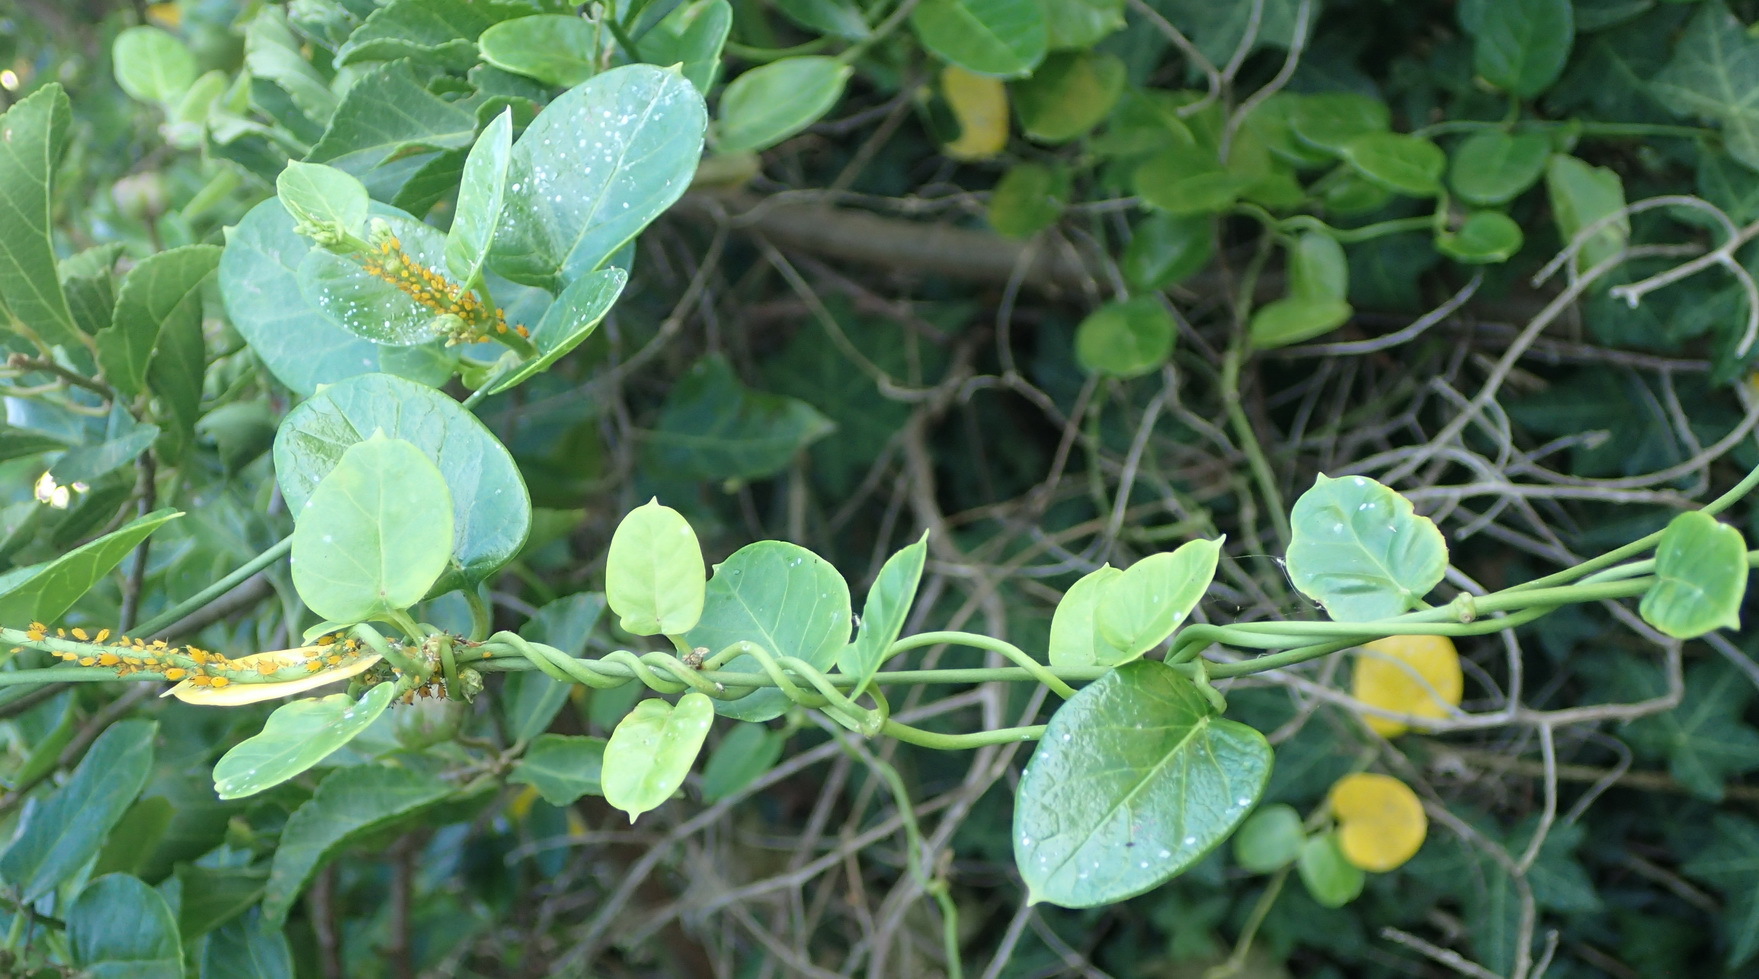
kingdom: Plantae
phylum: Tracheophyta
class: Magnoliopsida
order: Gentianales
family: Apocynaceae
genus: Cynanchum
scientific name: Cynanchum obtusifolium
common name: Monkey-rope
